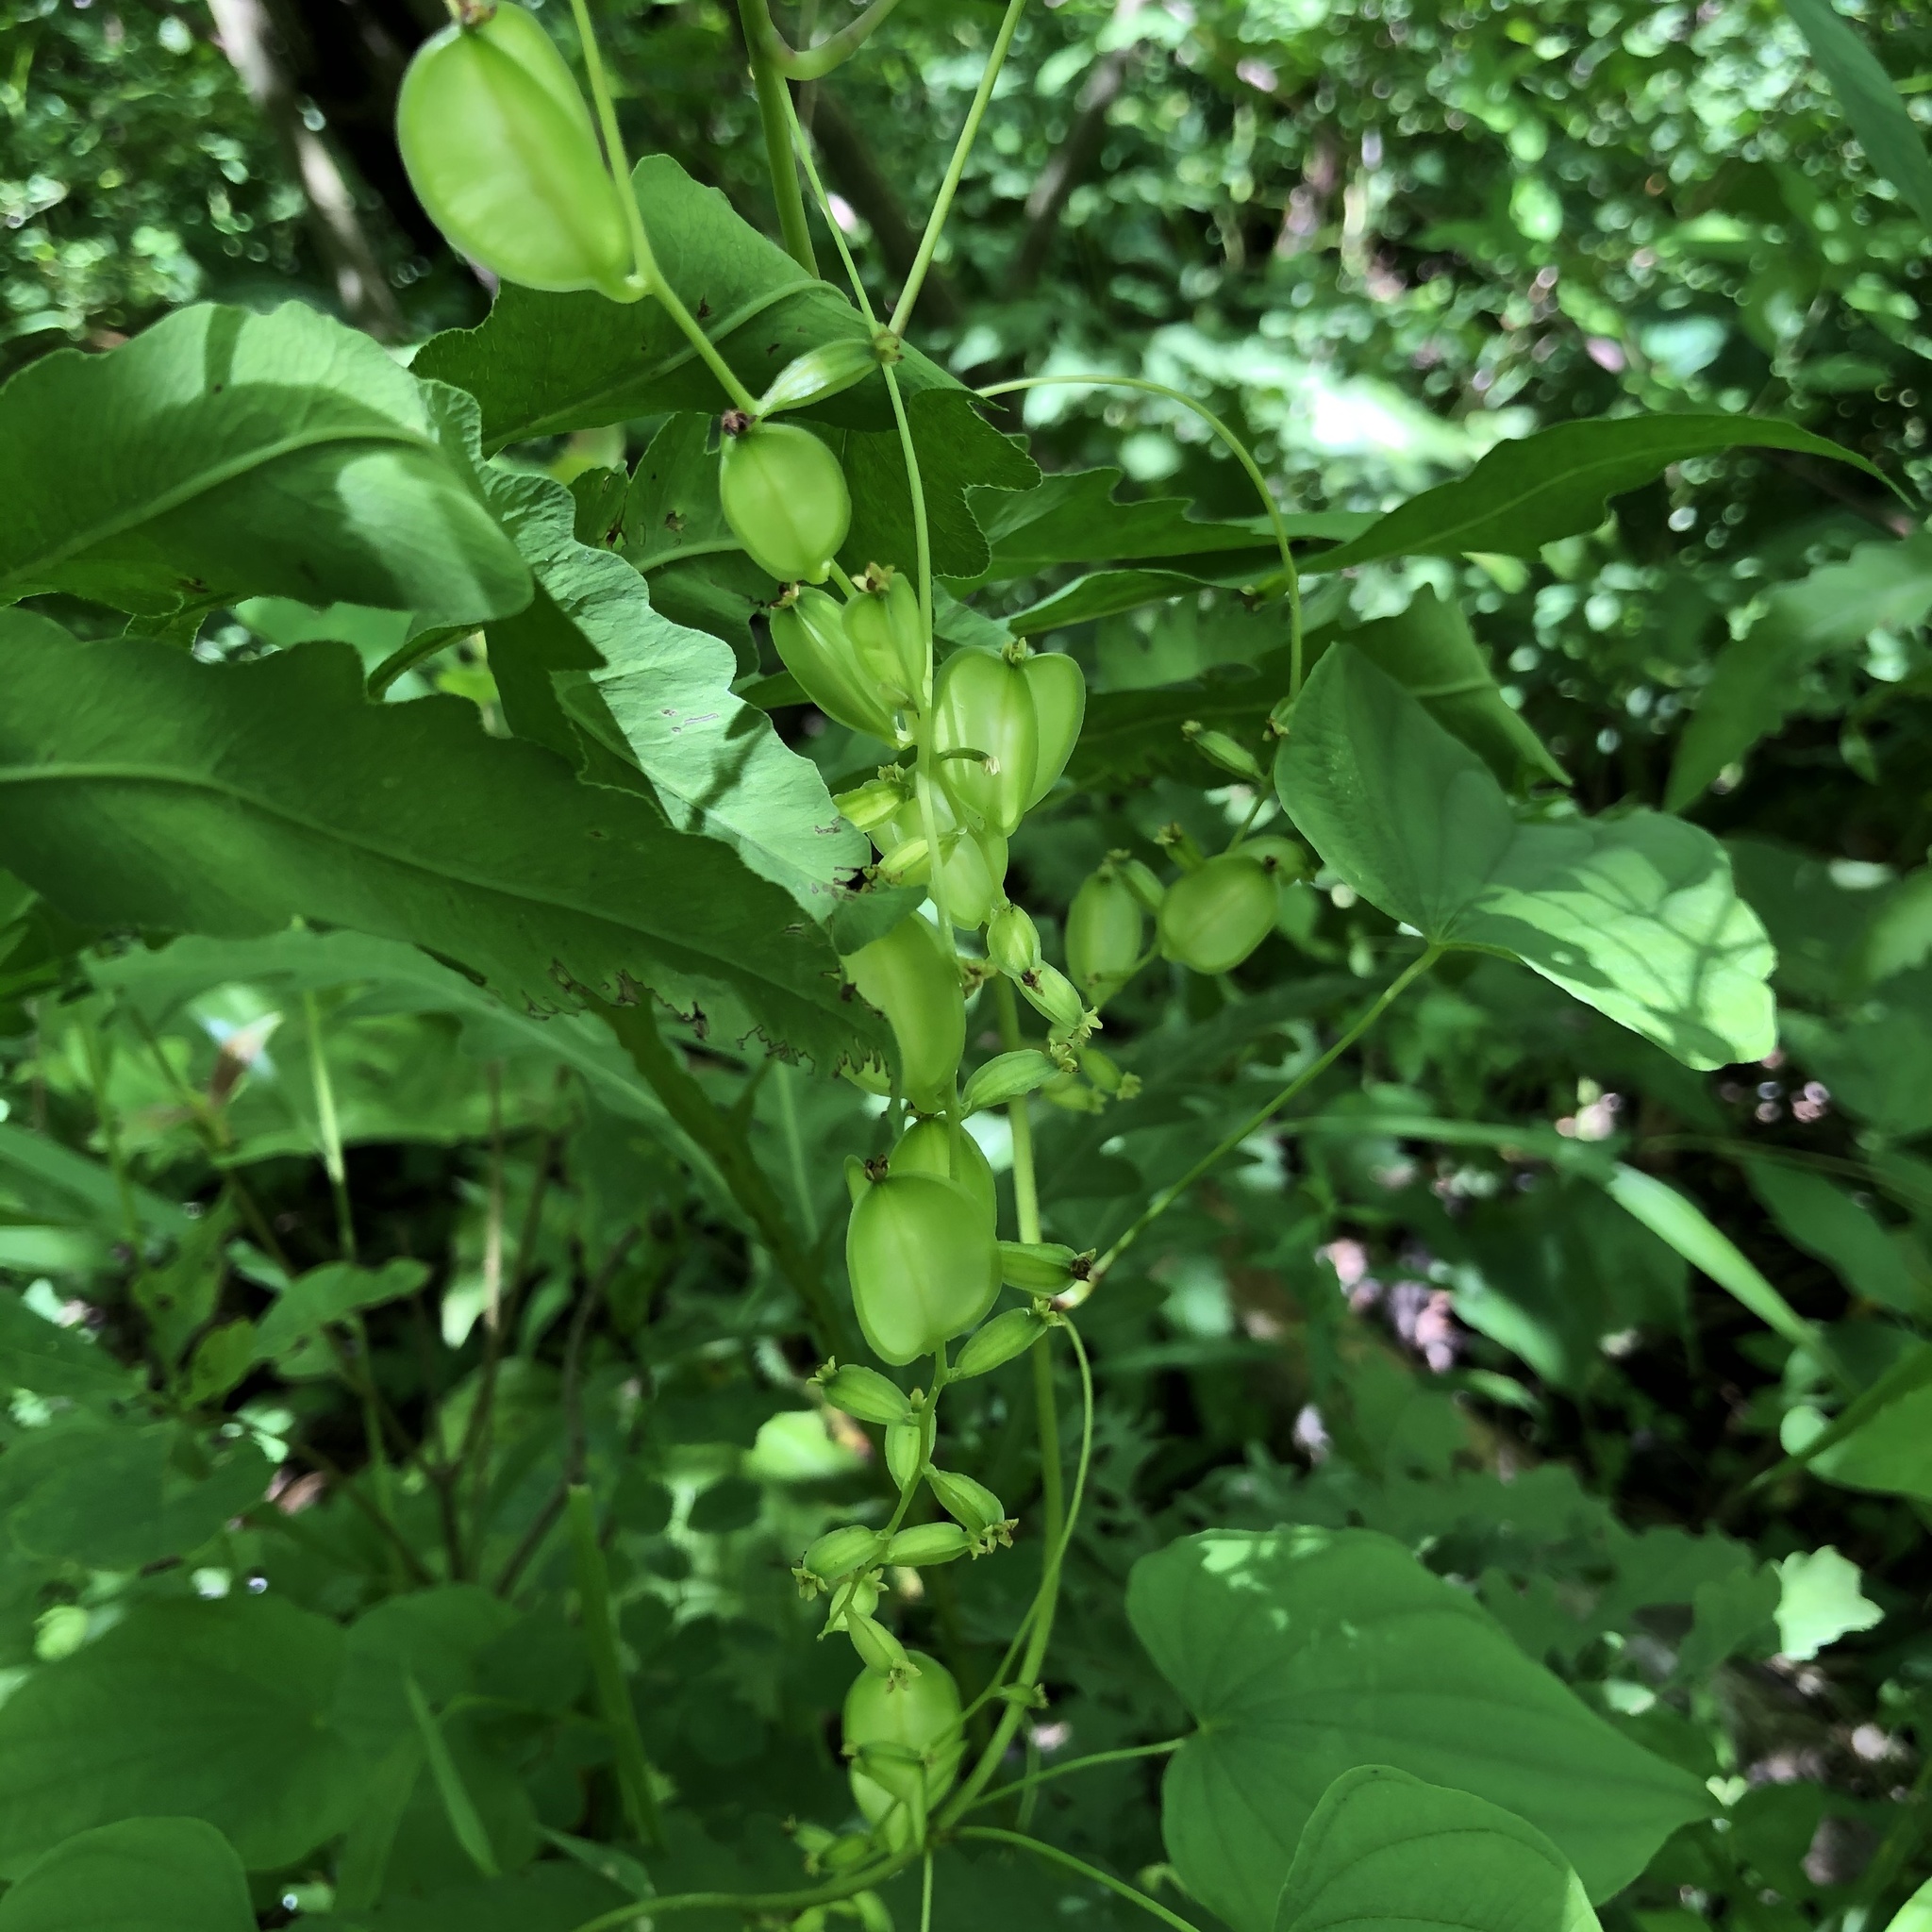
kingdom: Plantae
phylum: Tracheophyta
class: Liliopsida
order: Dioscoreales
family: Dioscoreaceae
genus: Dioscorea
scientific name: Dioscorea villosa
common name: Wild yam
